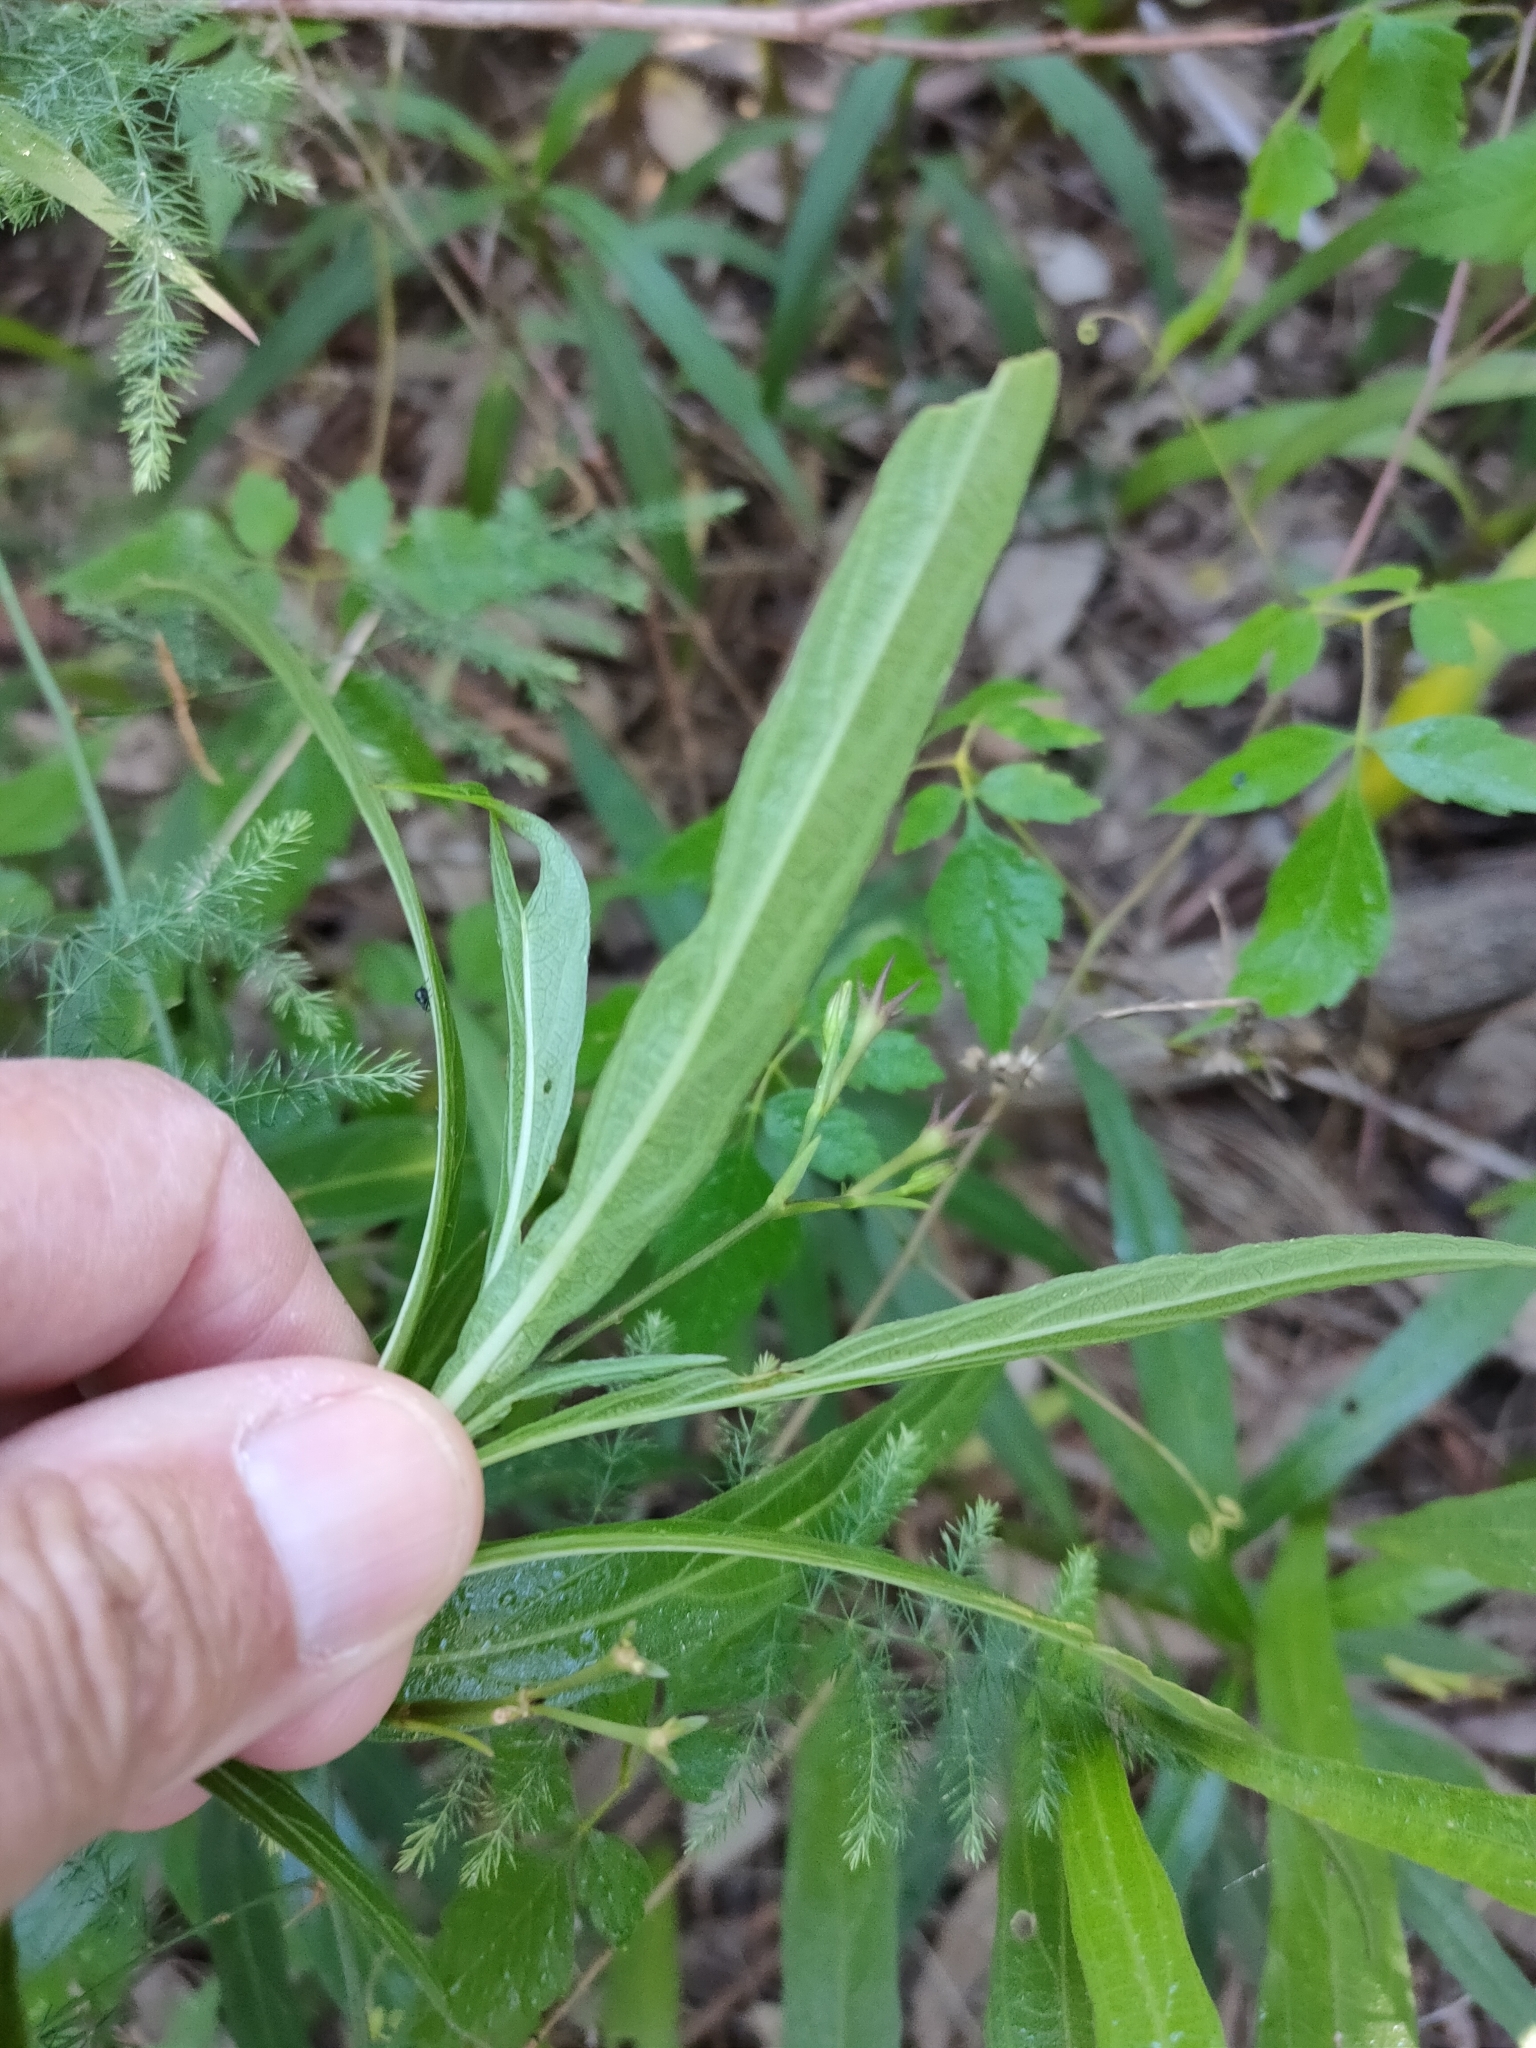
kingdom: Plantae
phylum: Tracheophyta
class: Magnoliopsida
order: Lamiales
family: Acanthaceae
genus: Ruellia
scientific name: Ruellia simplex
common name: Softseed wild petunia
